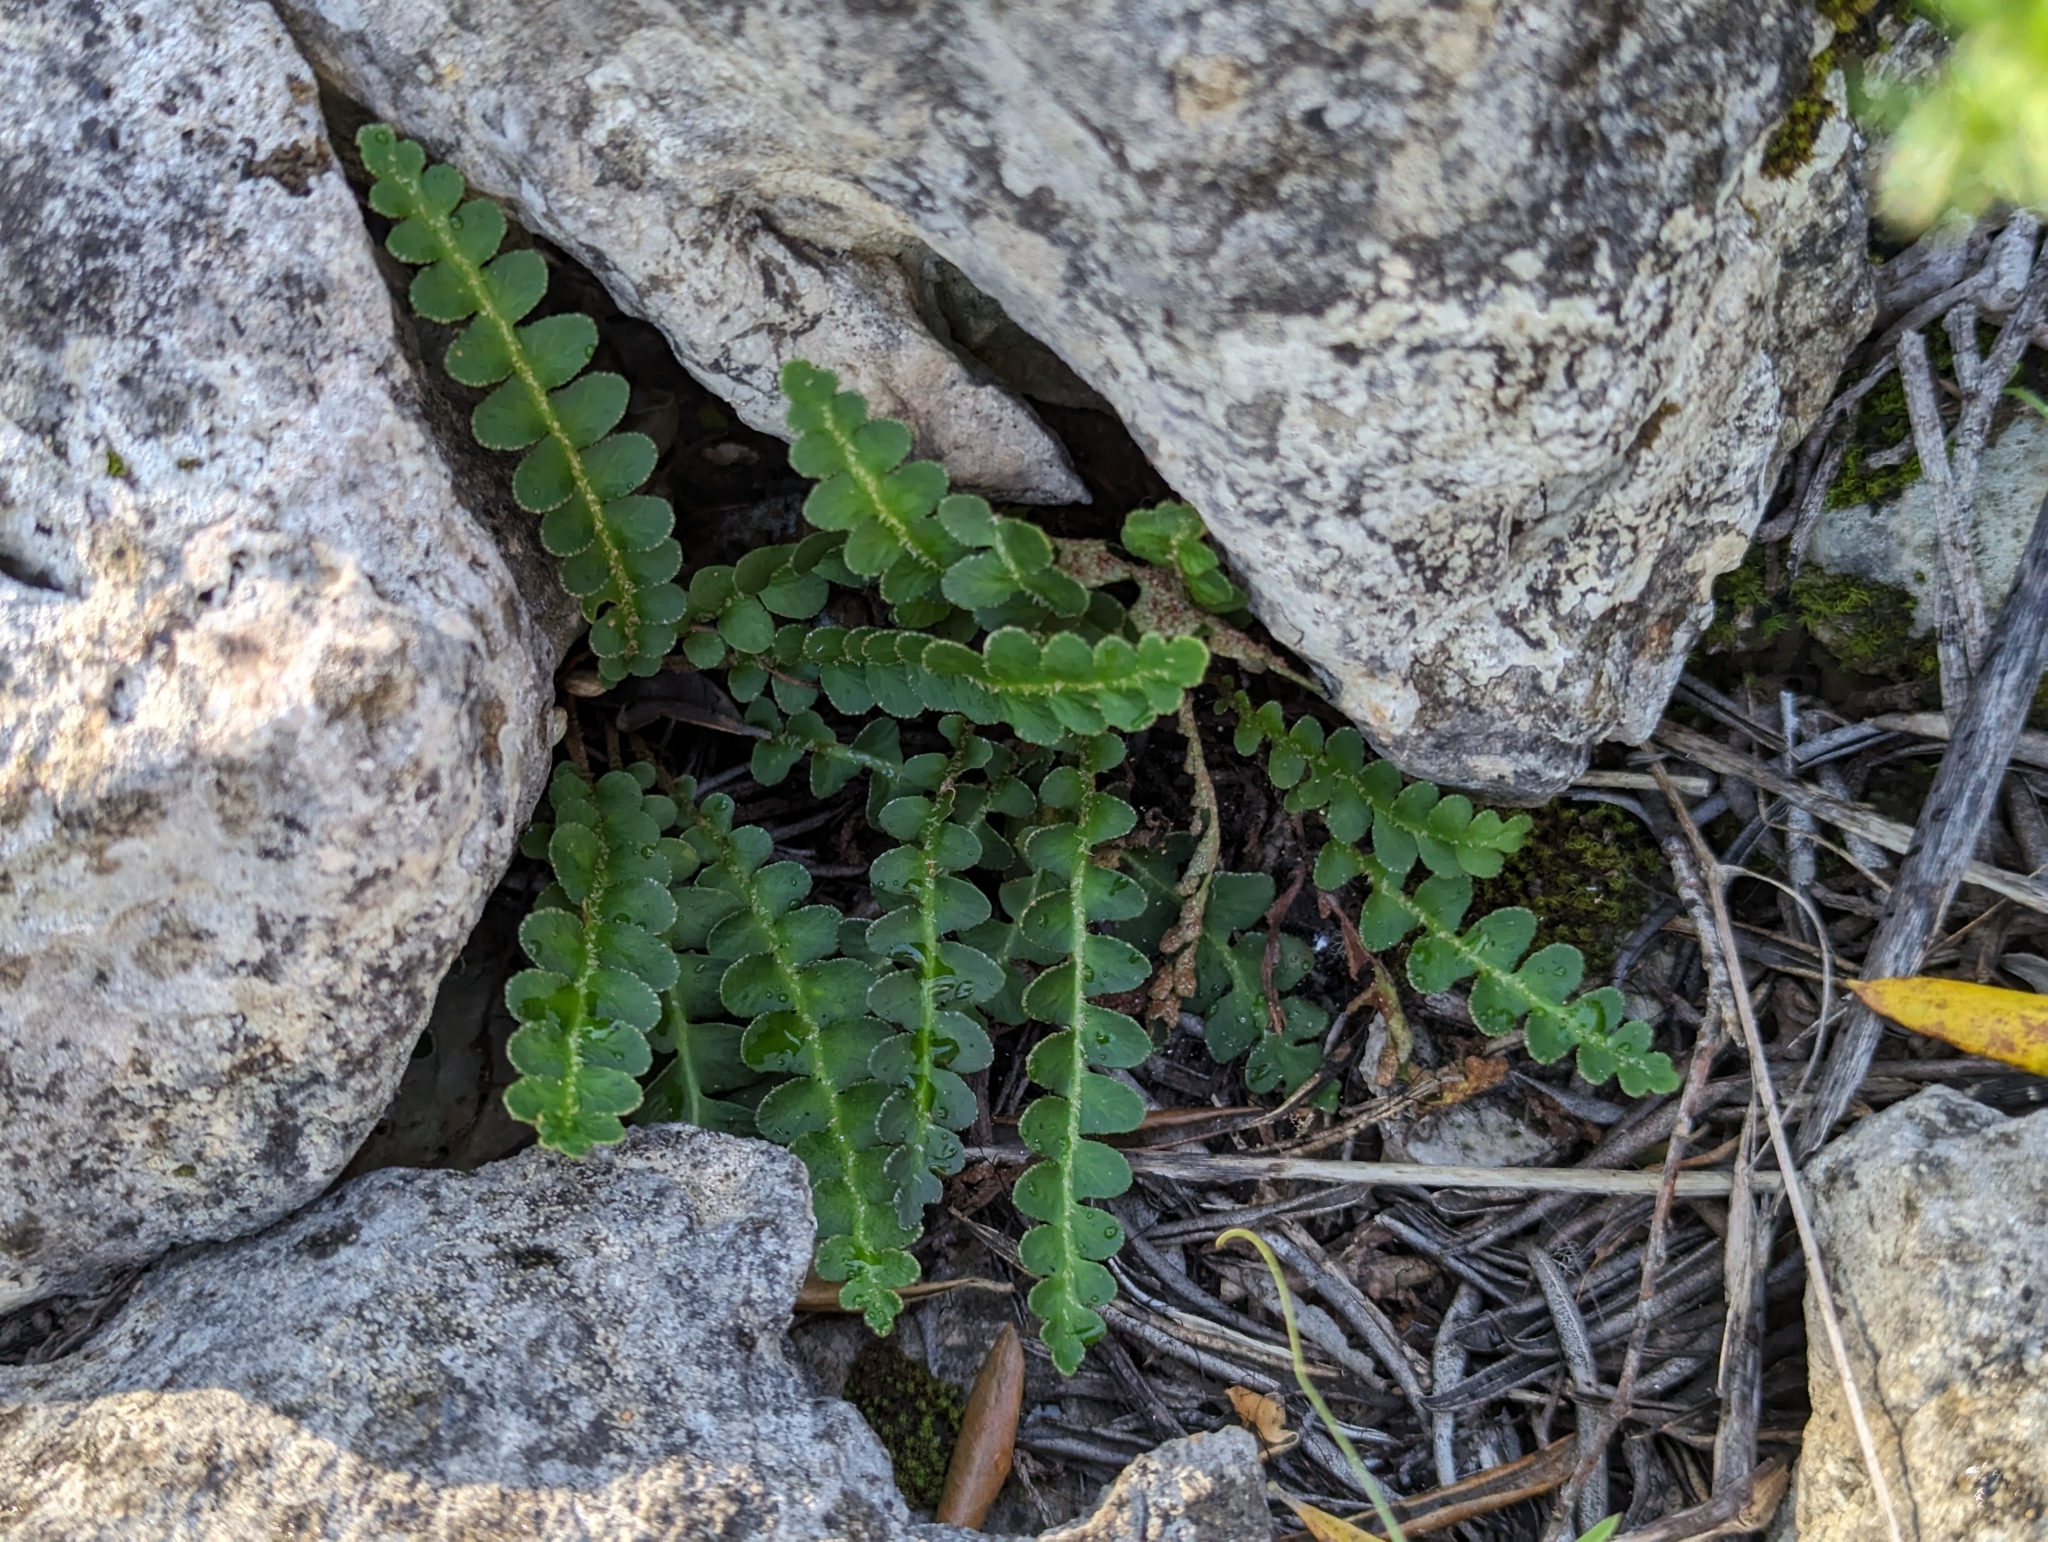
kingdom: Plantae
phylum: Tracheophyta
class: Polypodiopsida
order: Polypodiales
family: Aspleniaceae
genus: Asplenium
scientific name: Asplenium ceterach
